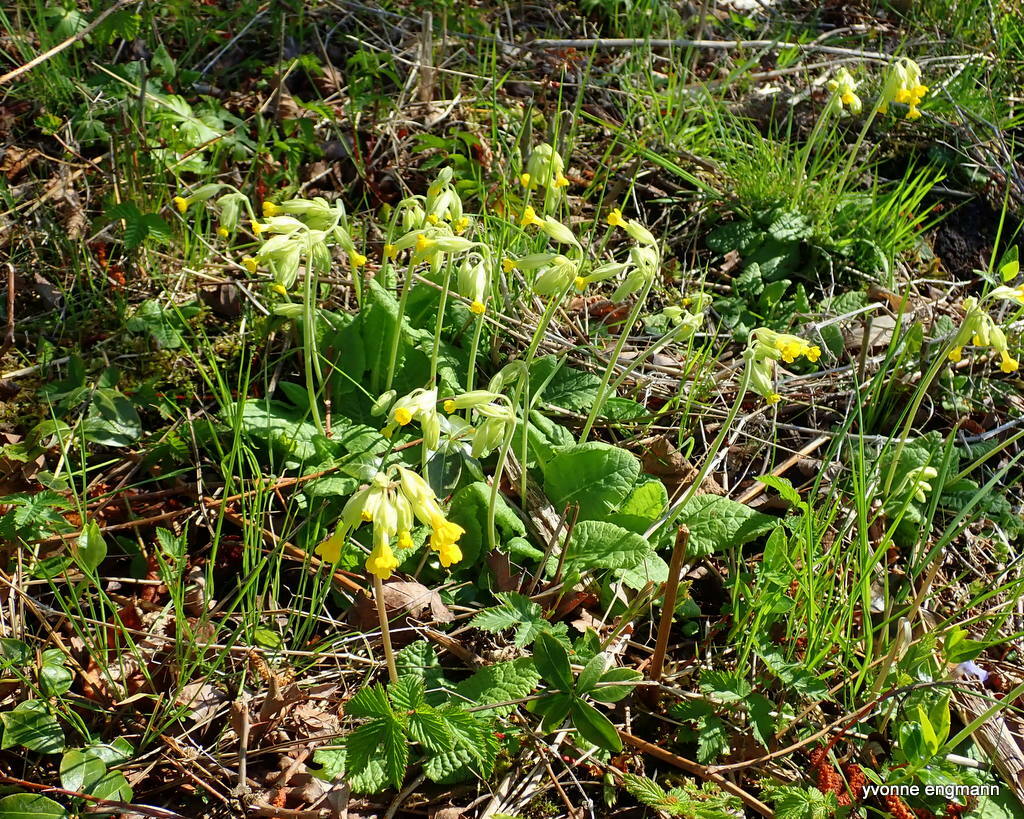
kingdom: Plantae
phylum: Tracheophyta
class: Magnoliopsida
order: Ericales
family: Primulaceae
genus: Primula
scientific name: Primula veris
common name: Cowslip
